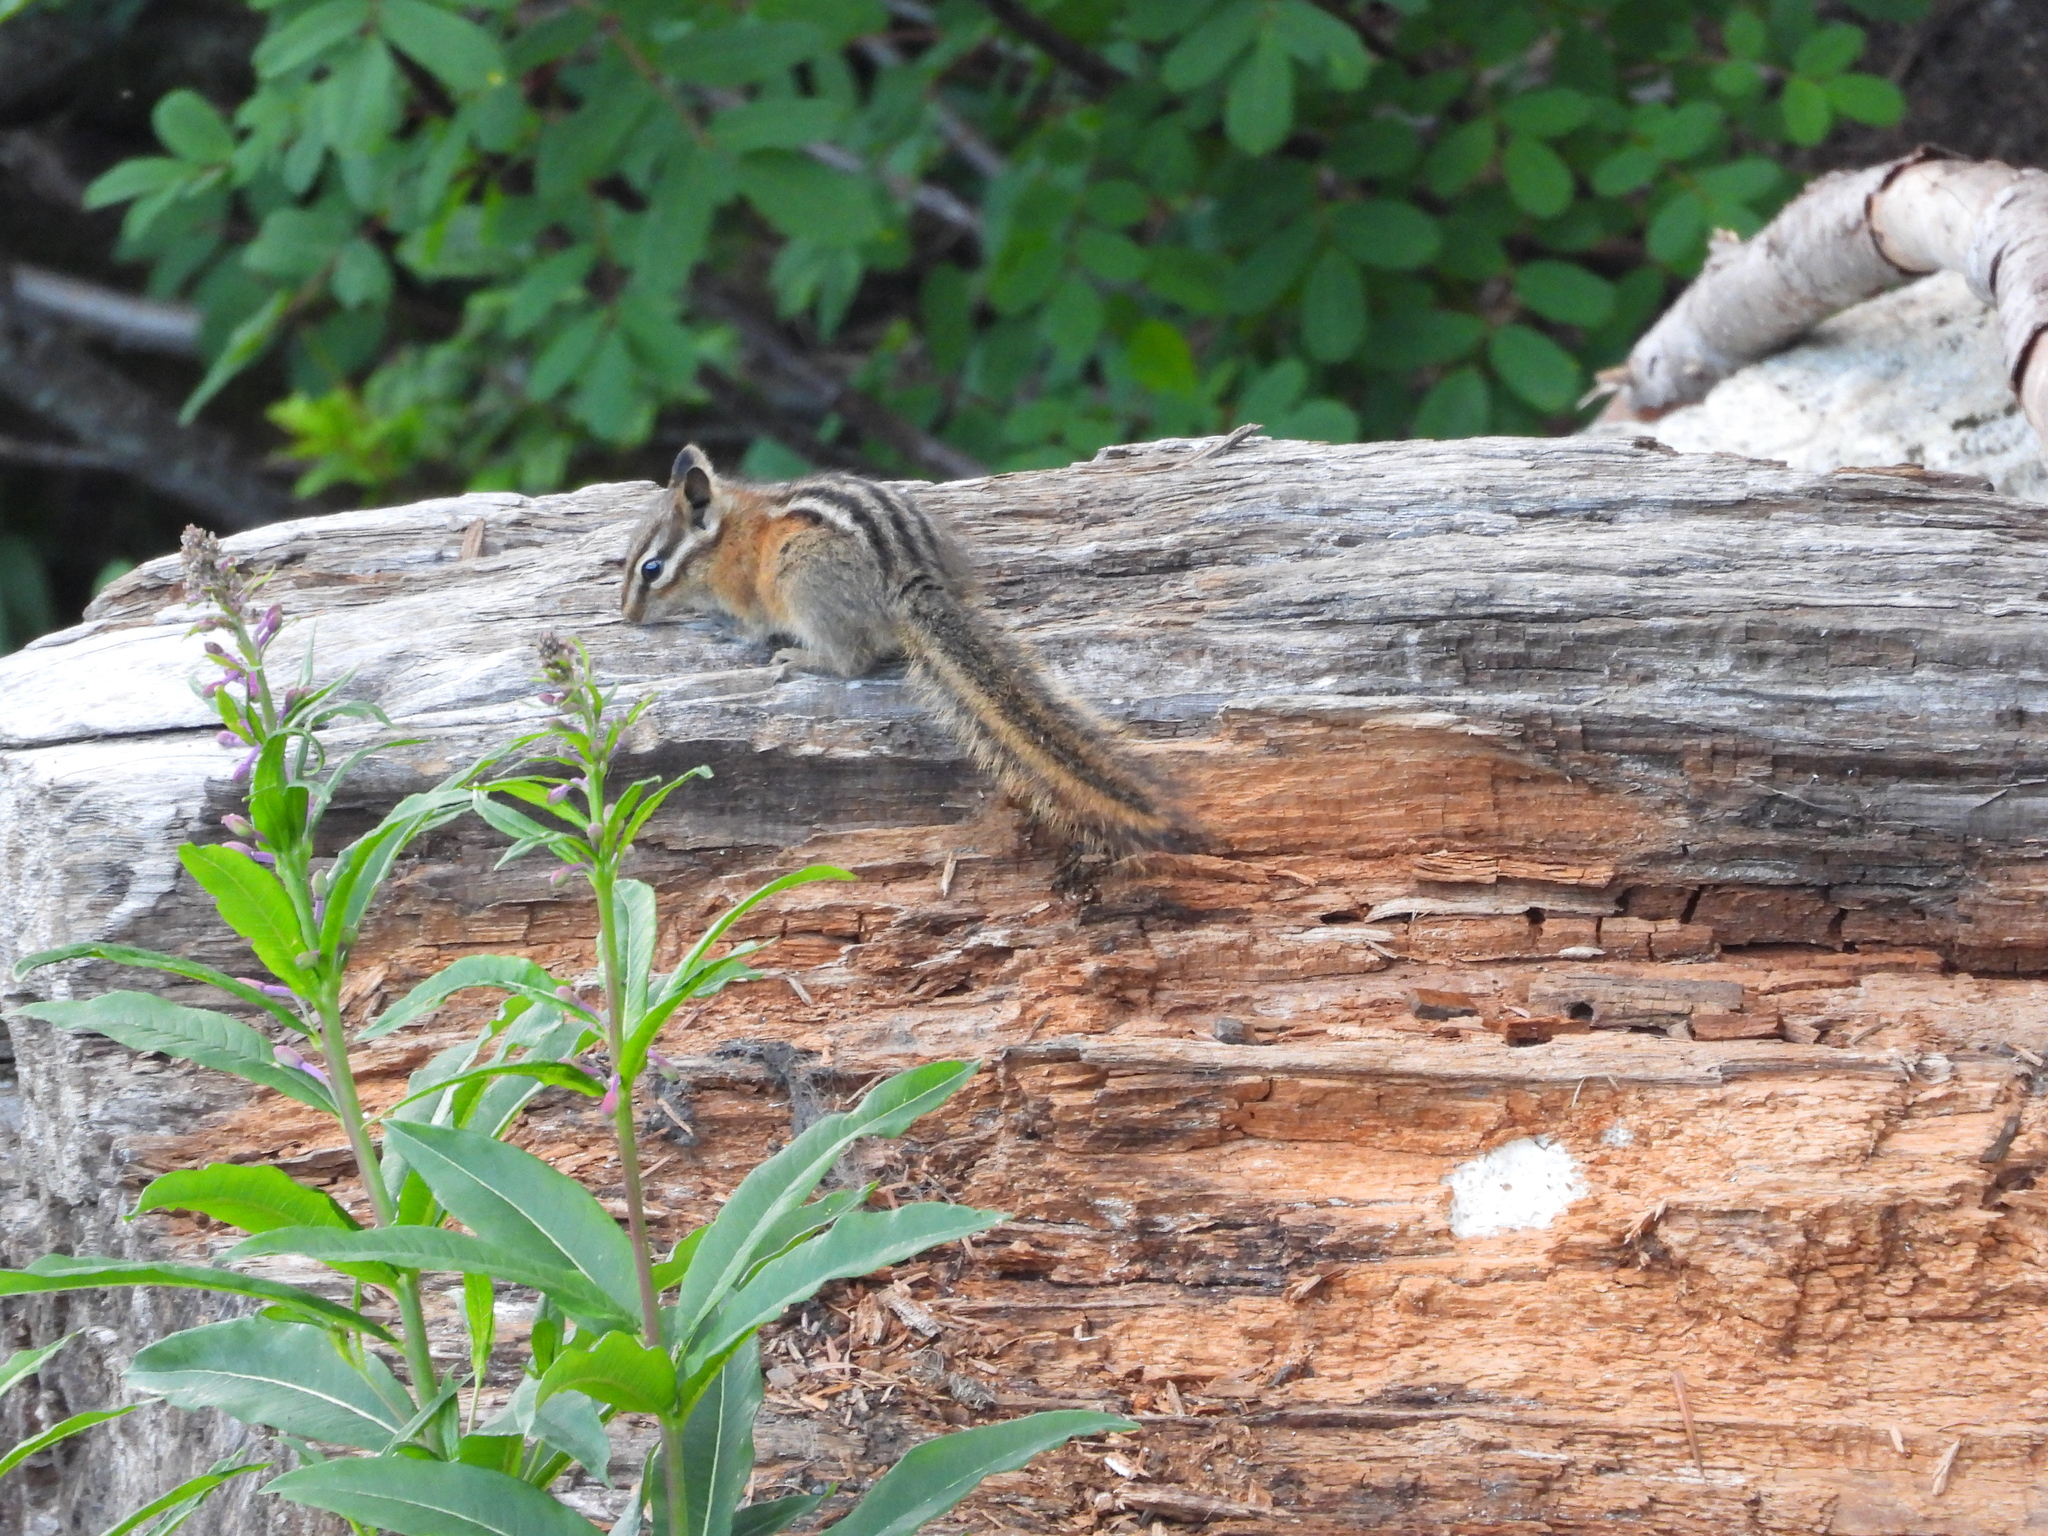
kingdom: Animalia
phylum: Chordata
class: Mammalia
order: Rodentia
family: Sciuridae
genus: Tamias
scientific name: Tamias amoenus
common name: Yellow-pine chipmunk
